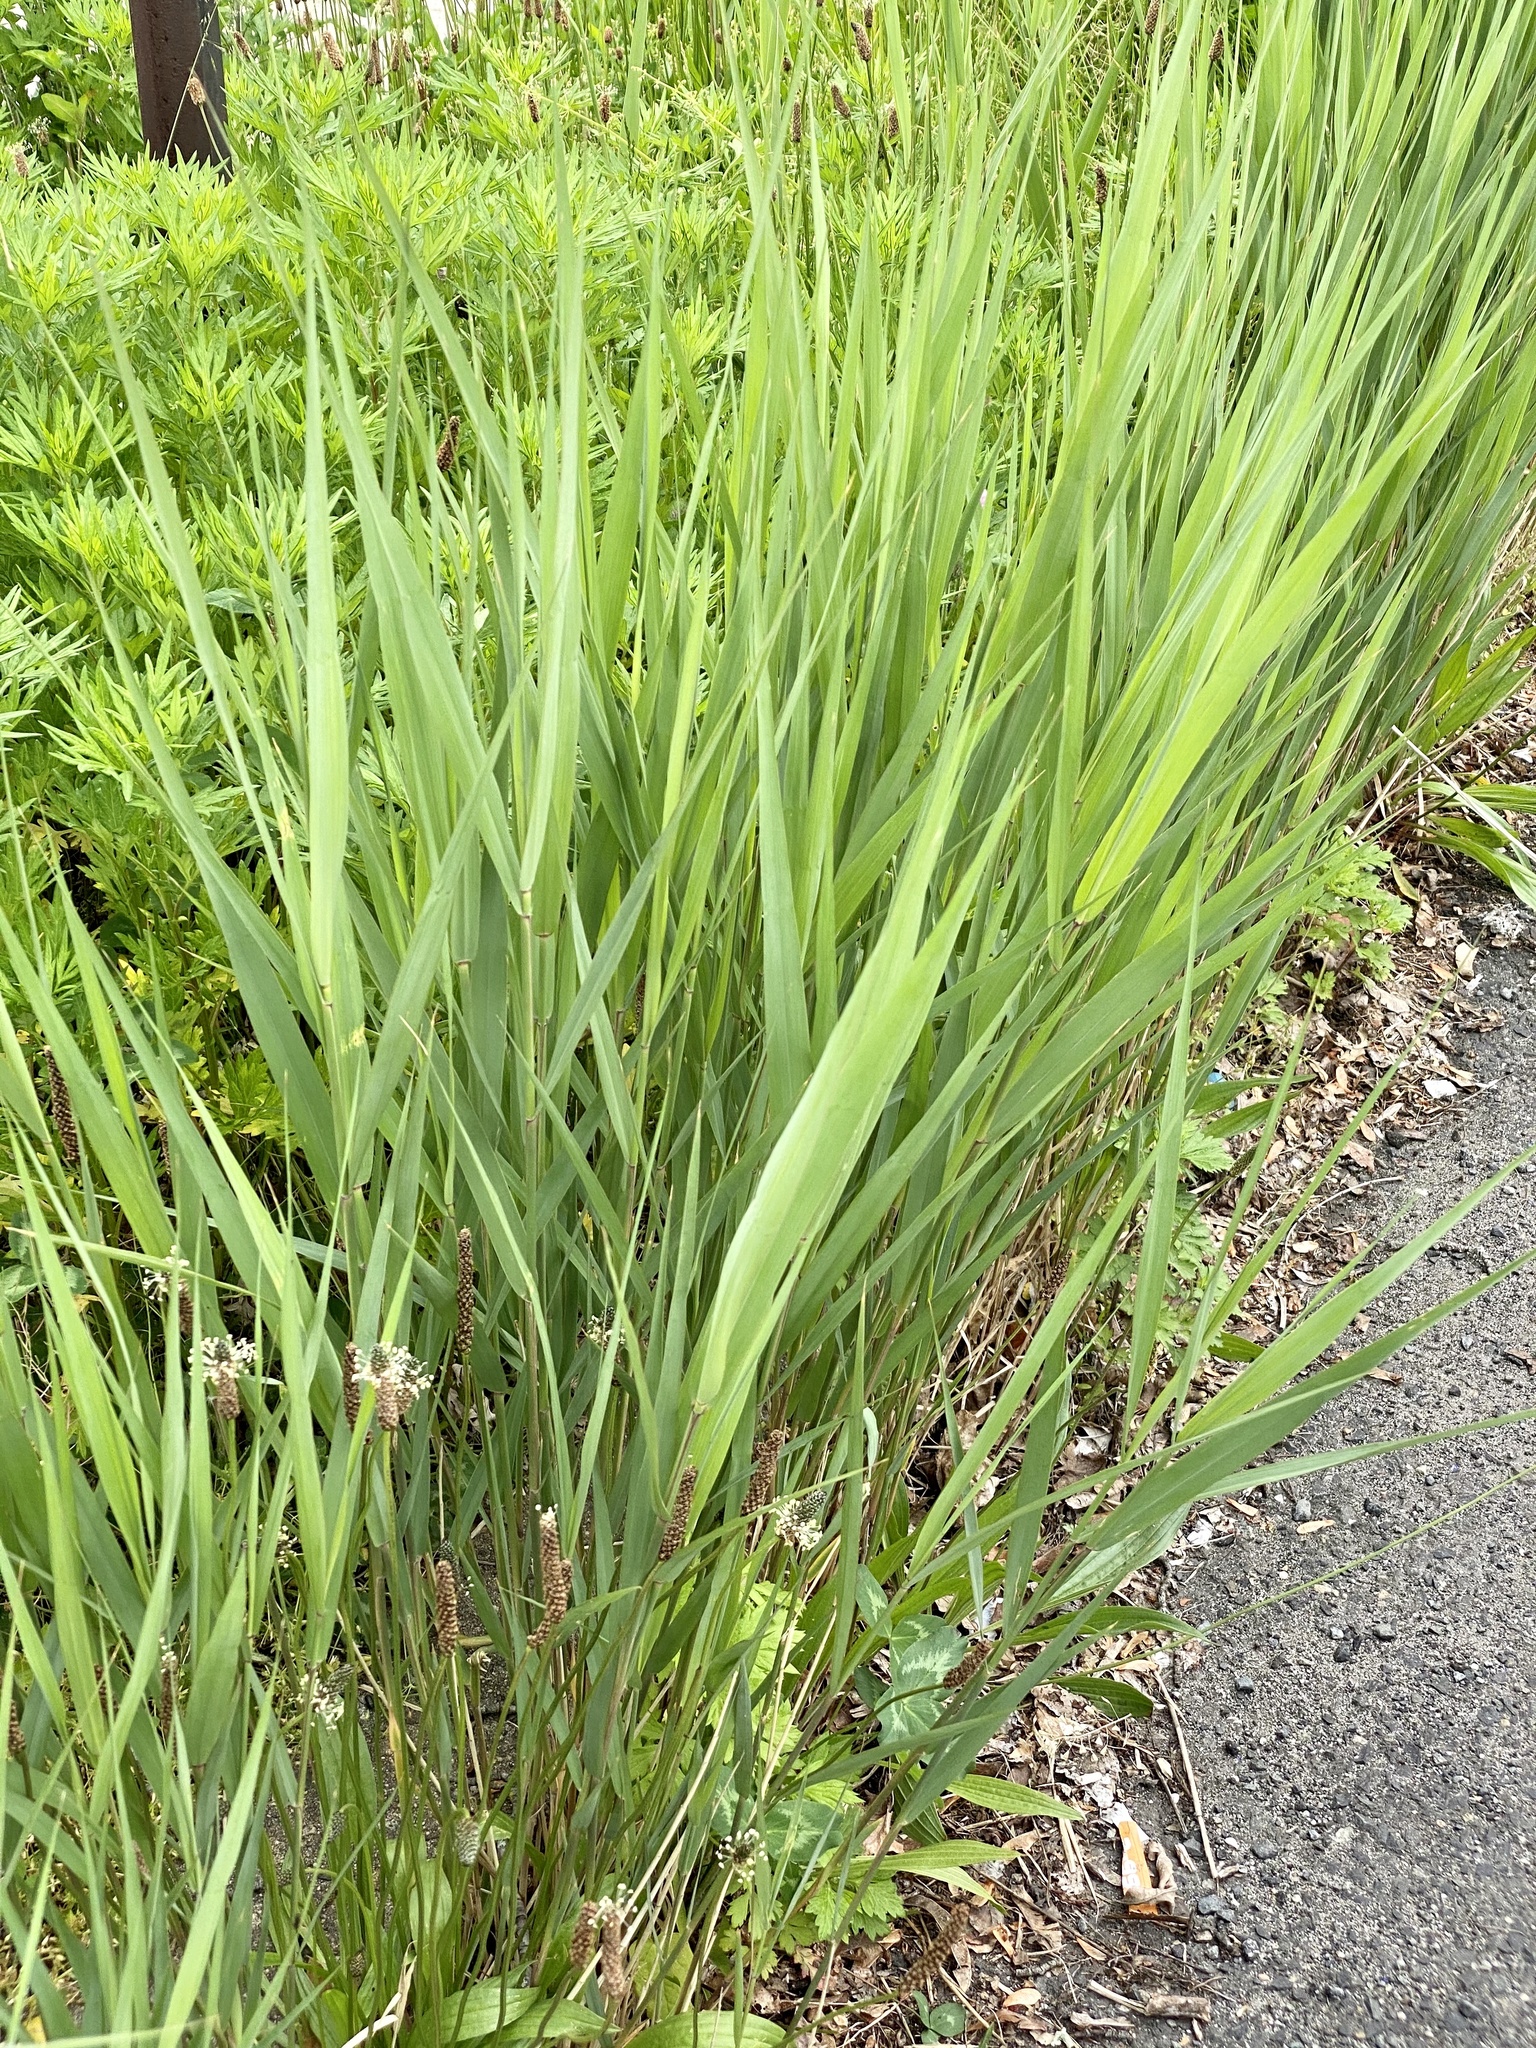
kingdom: Plantae
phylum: Tracheophyta
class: Liliopsida
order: Poales
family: Poaceae
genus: Phalaris
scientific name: Phalaris arundinacea
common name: Reed canary-grass
